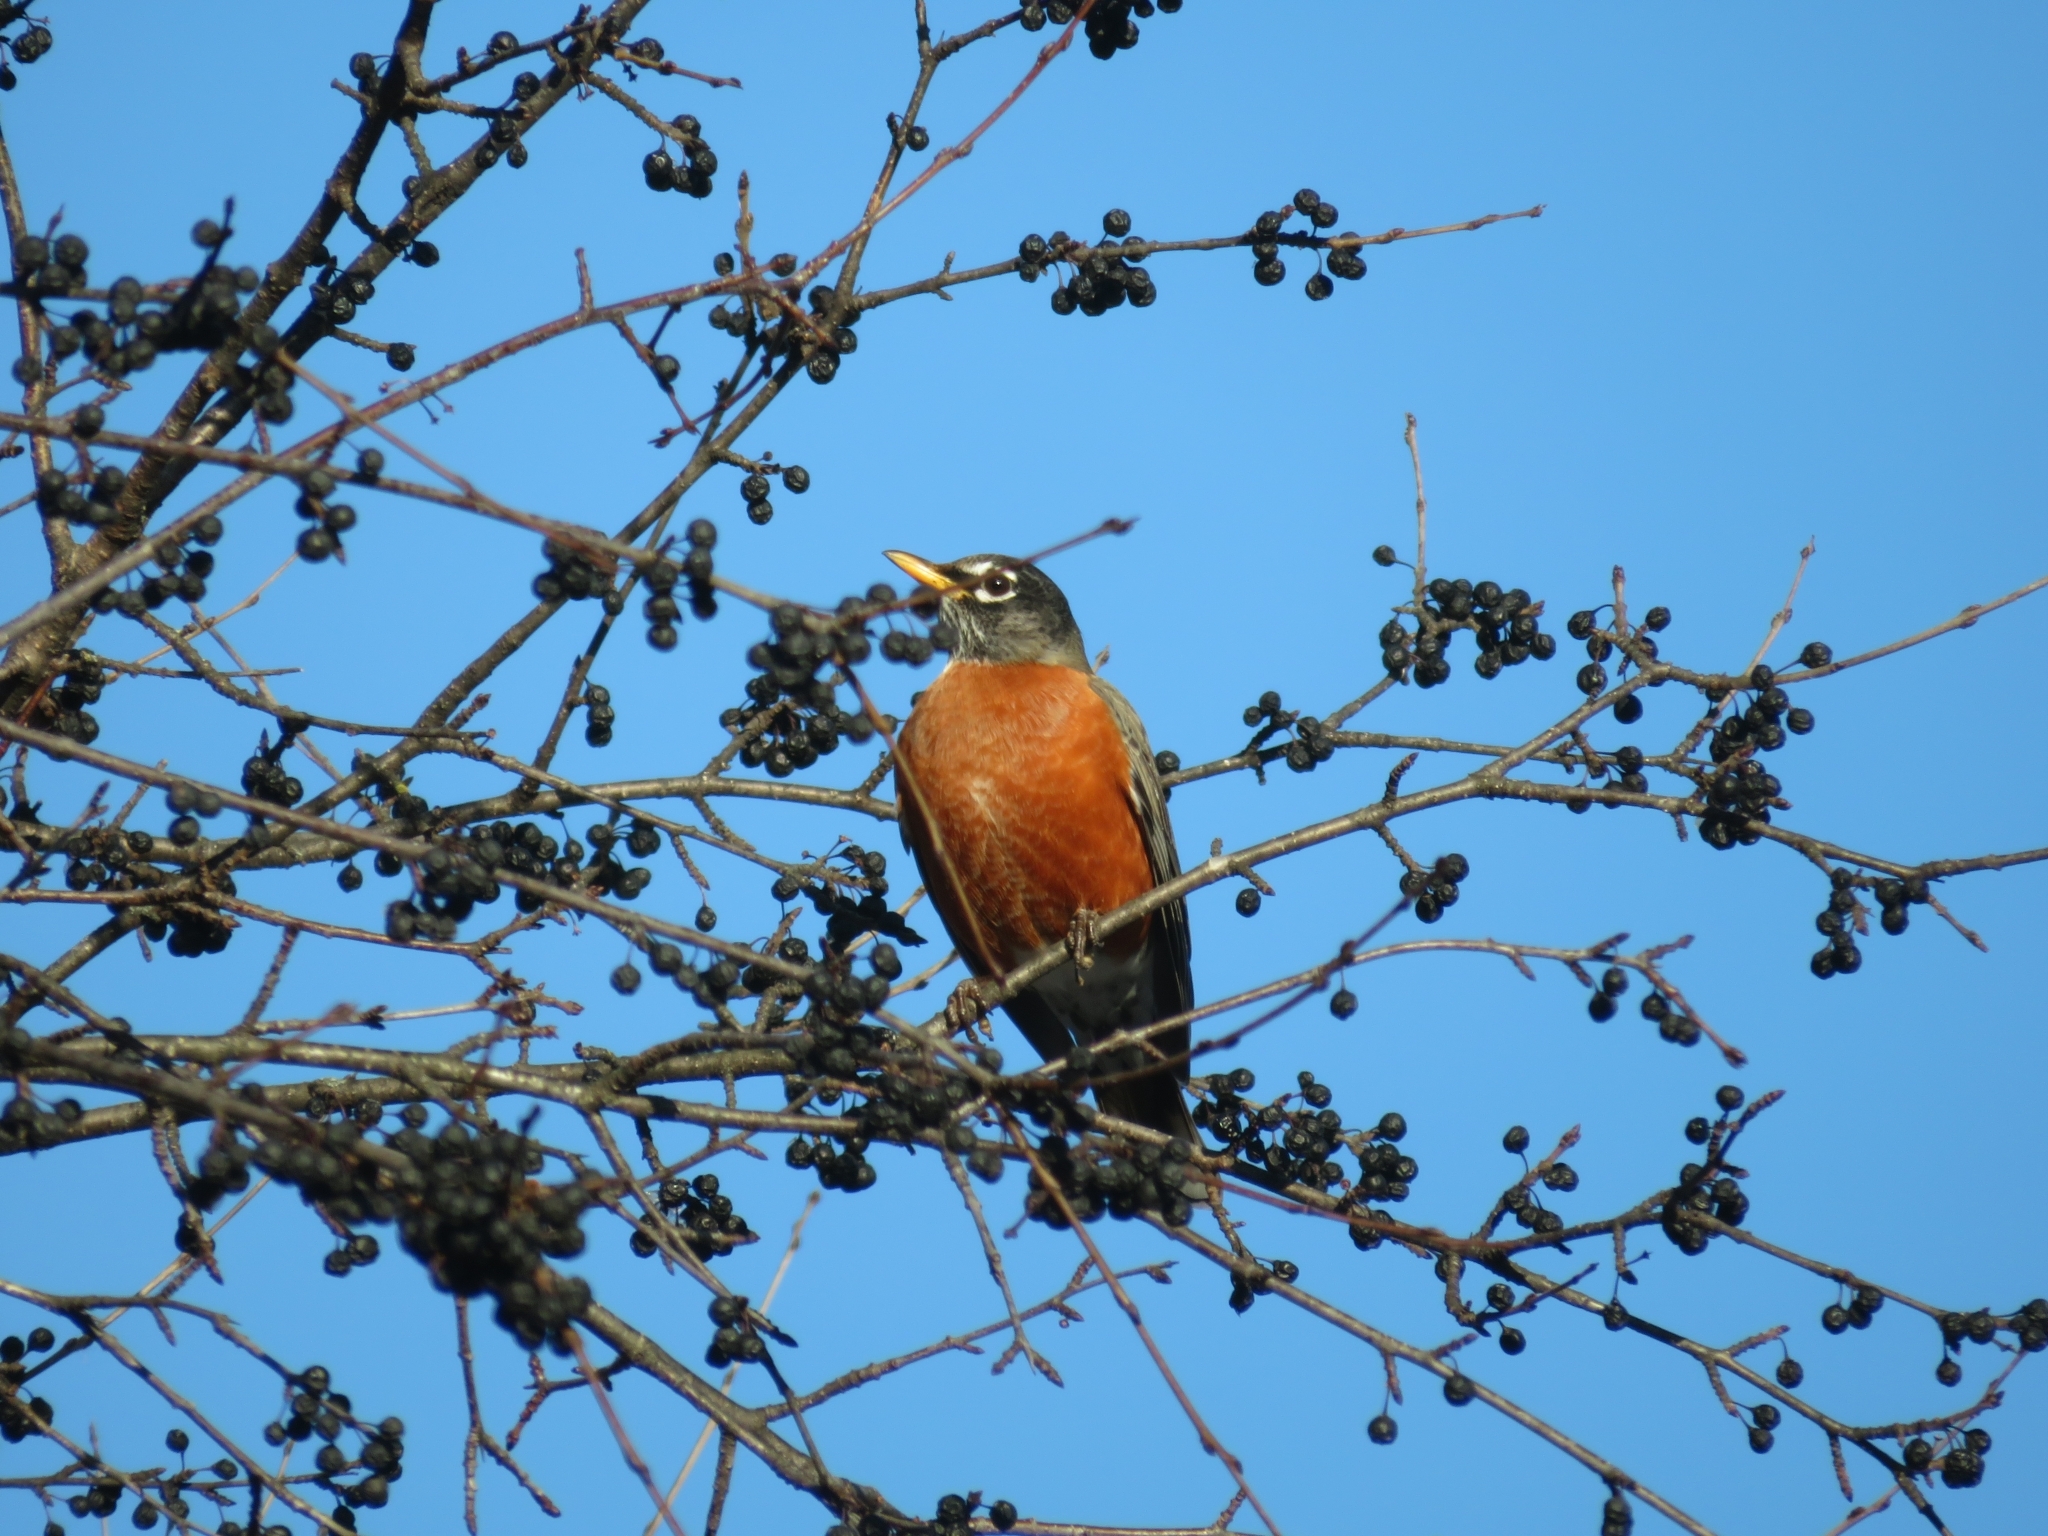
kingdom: Animalia
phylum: Chordata
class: Aves
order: Passeriformes
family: Turdidae
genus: Turdus
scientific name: Turdus migratorius
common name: American robin
